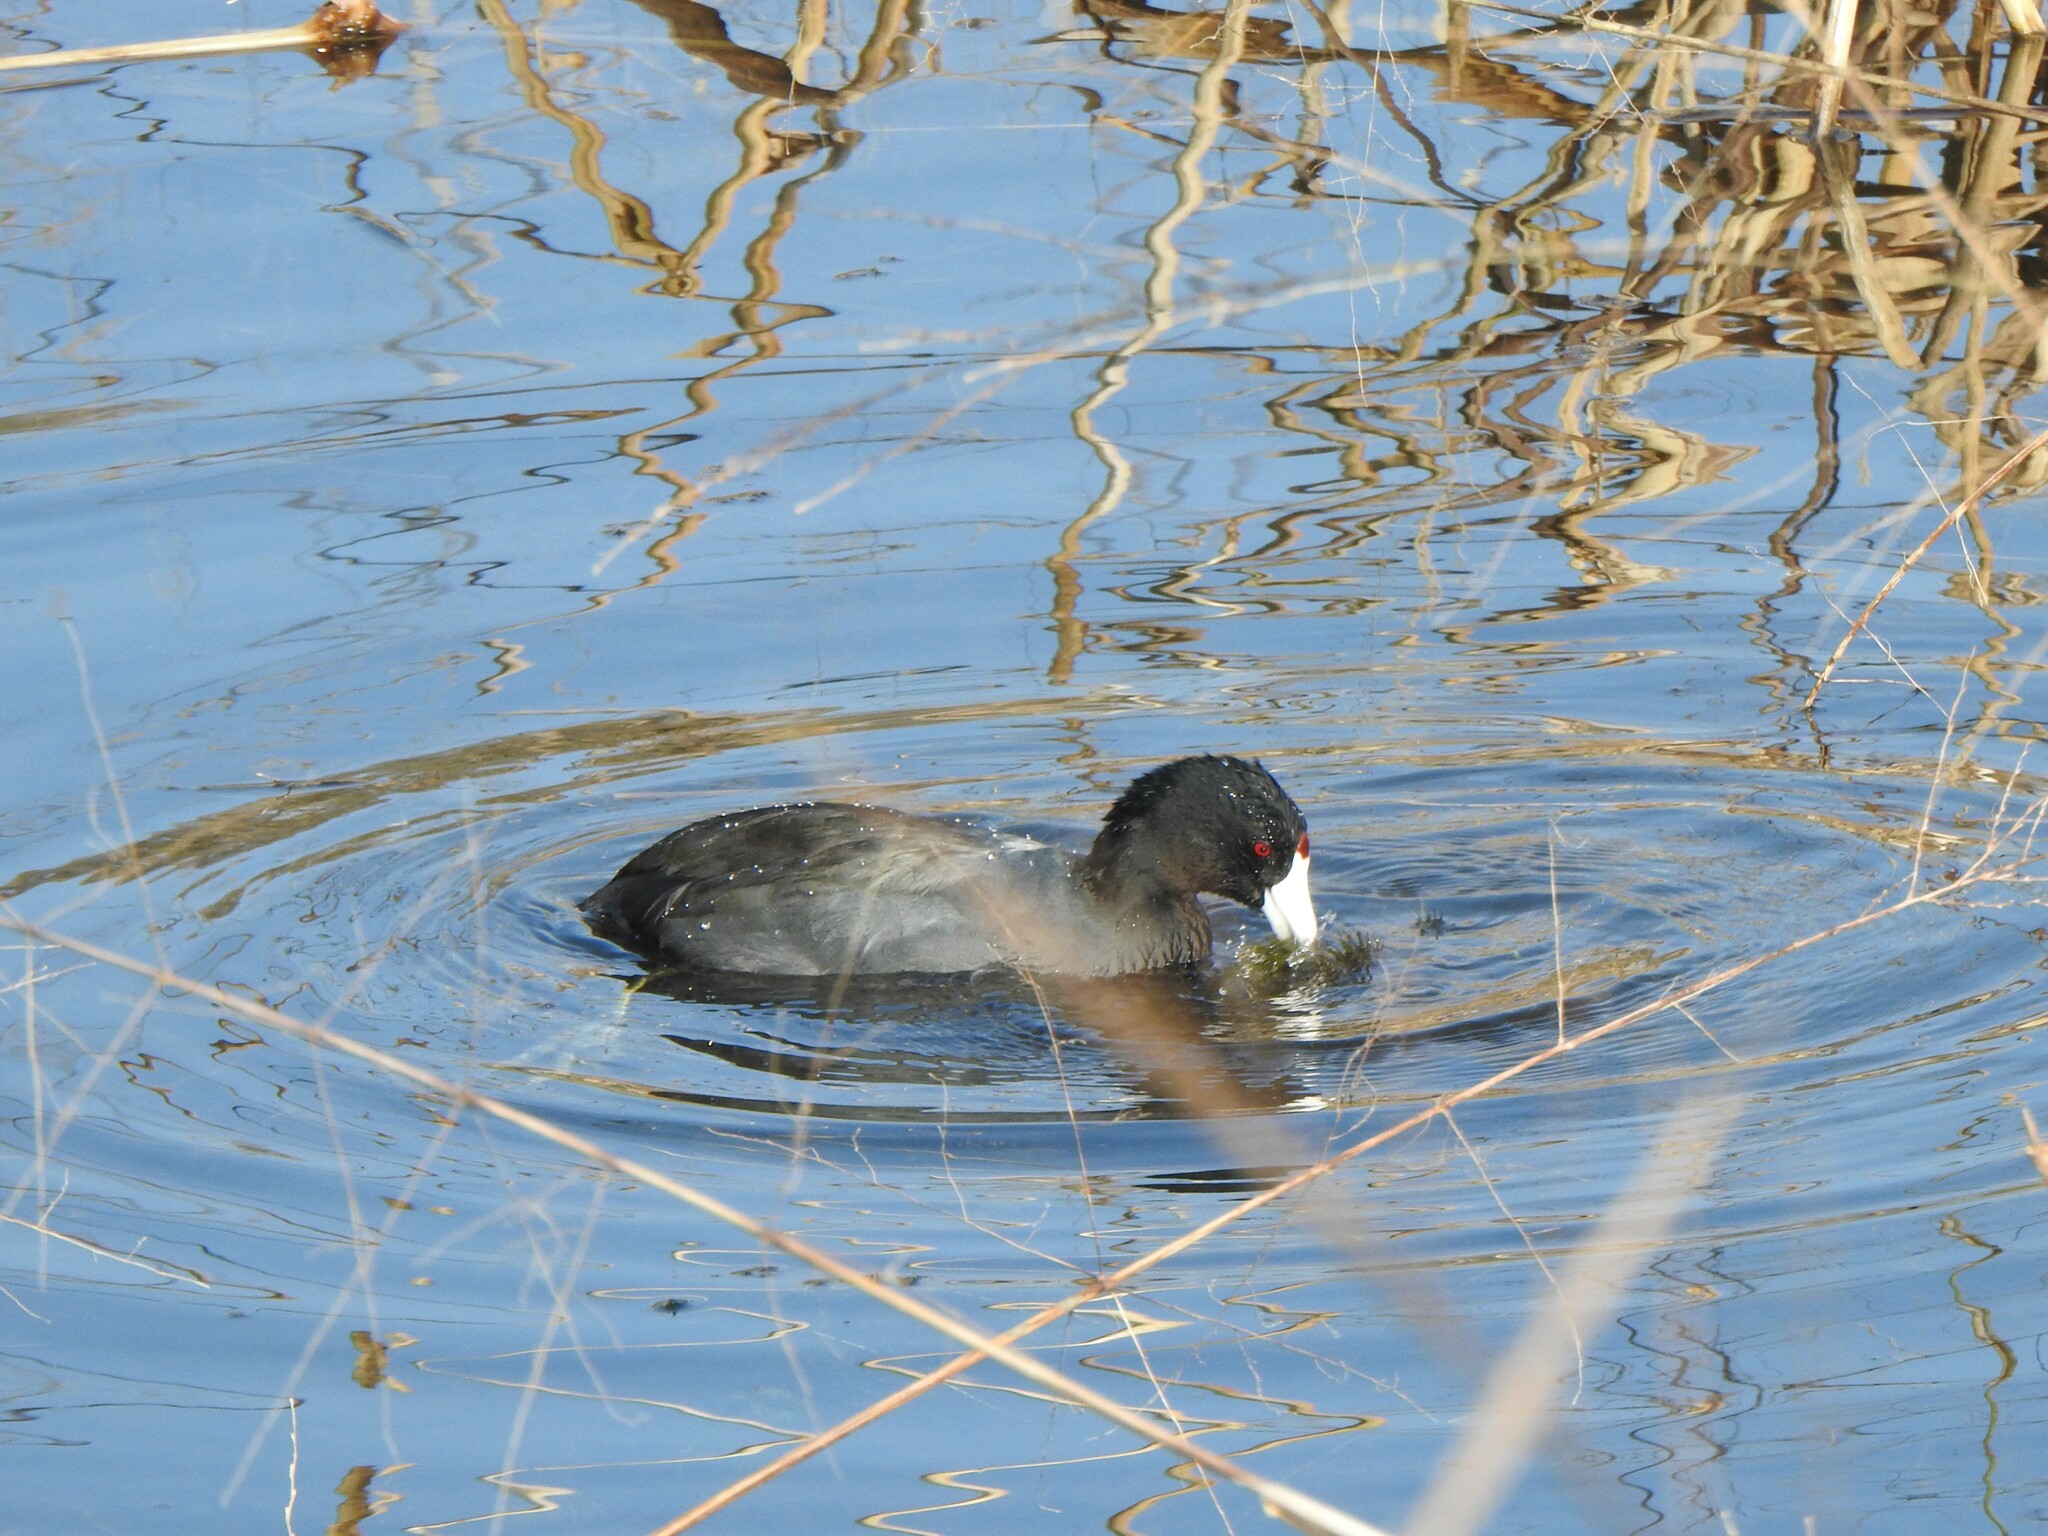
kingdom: Animalia
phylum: Chordata
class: Aves
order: Gruiformes
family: Rallidae
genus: Fulica
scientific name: Fulica americana
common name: American coot
